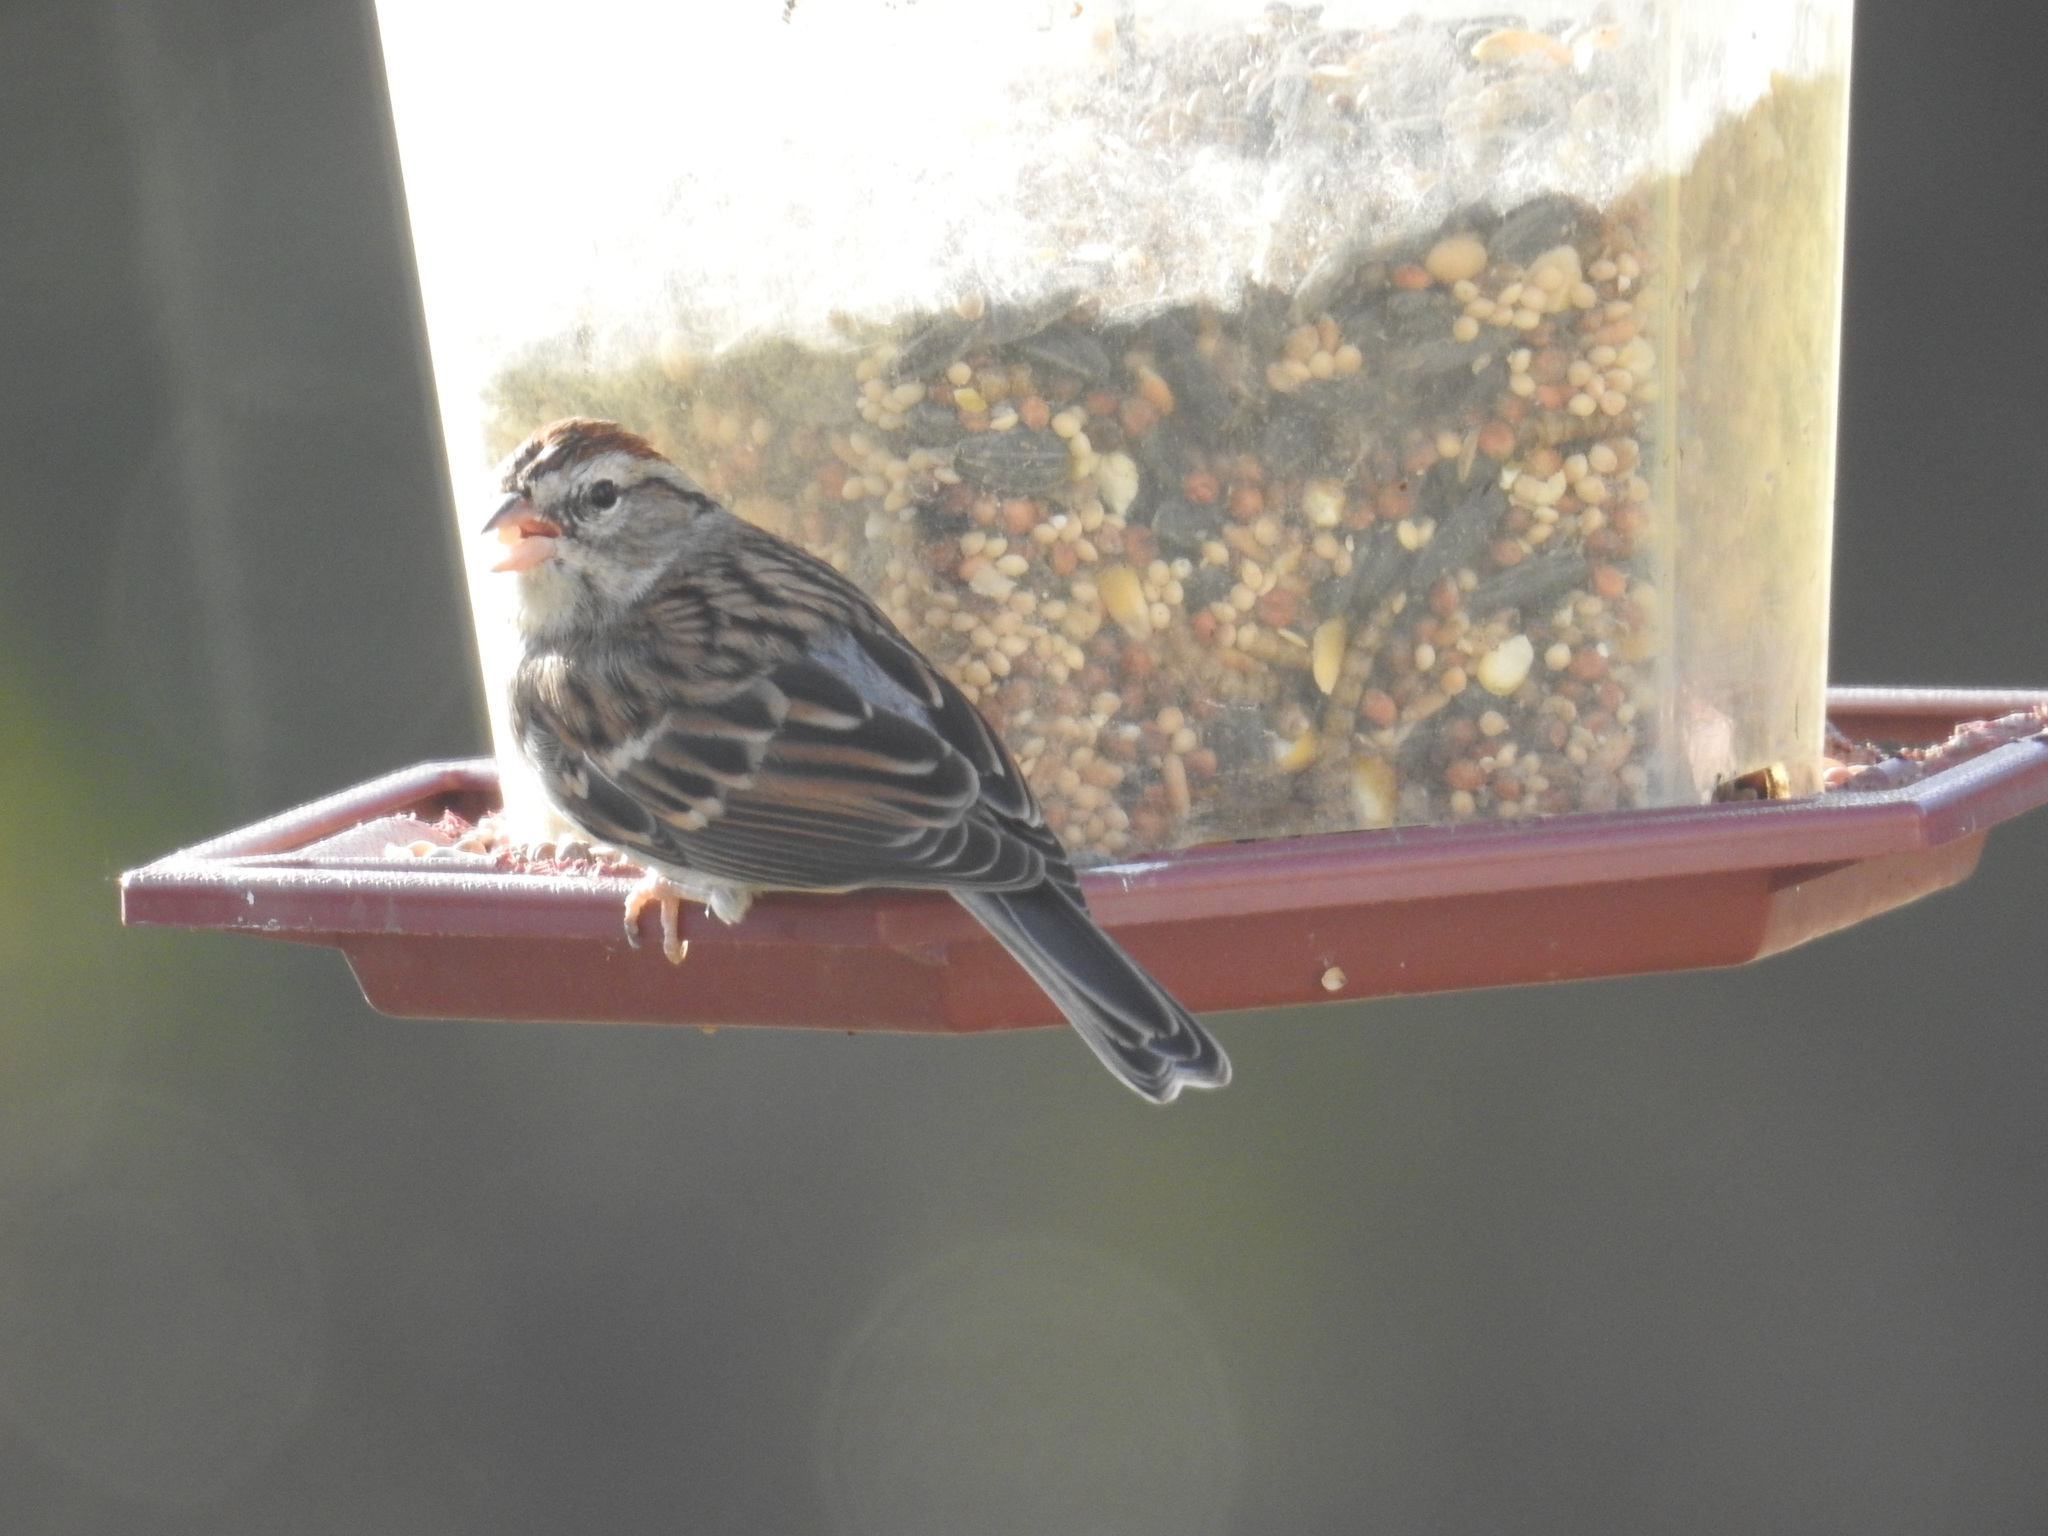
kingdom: Animalia
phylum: Chordata
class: Aves
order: Passeriformes
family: Passerellidae
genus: Spizella
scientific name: Spizella passerina
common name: Chipping sparrow
